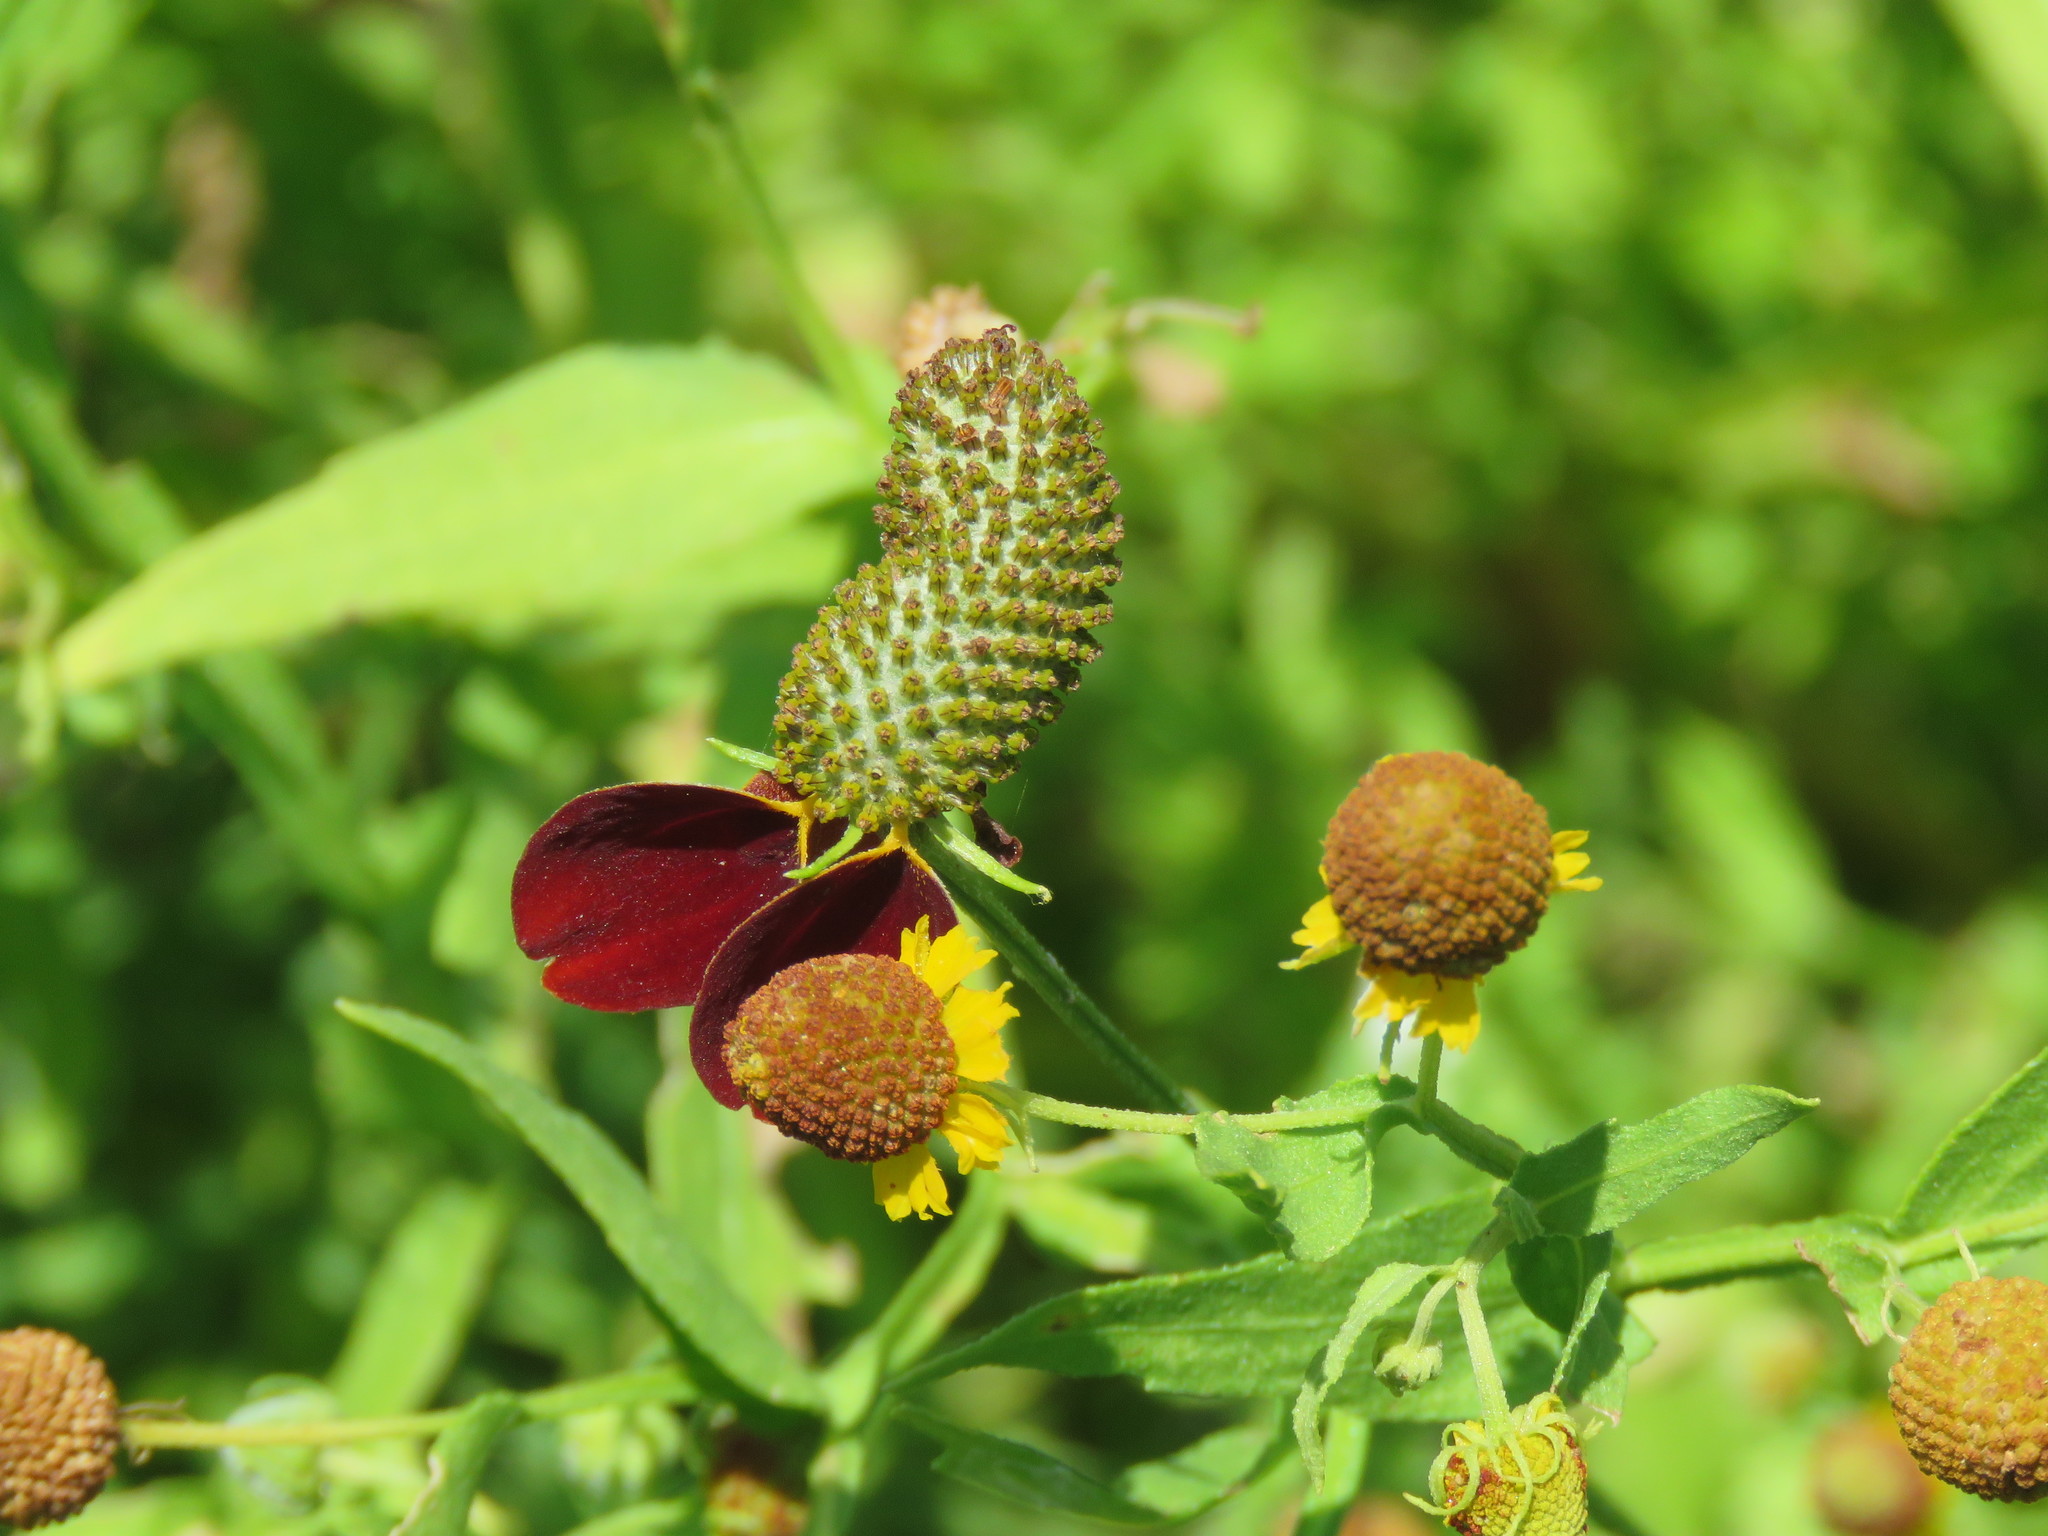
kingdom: Plantae
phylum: Tracheophyta
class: Magnoliopsida
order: Asterales
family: Asteraceae
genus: Ratibida
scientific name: Ratibida columnifera
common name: Prairie coneflower
